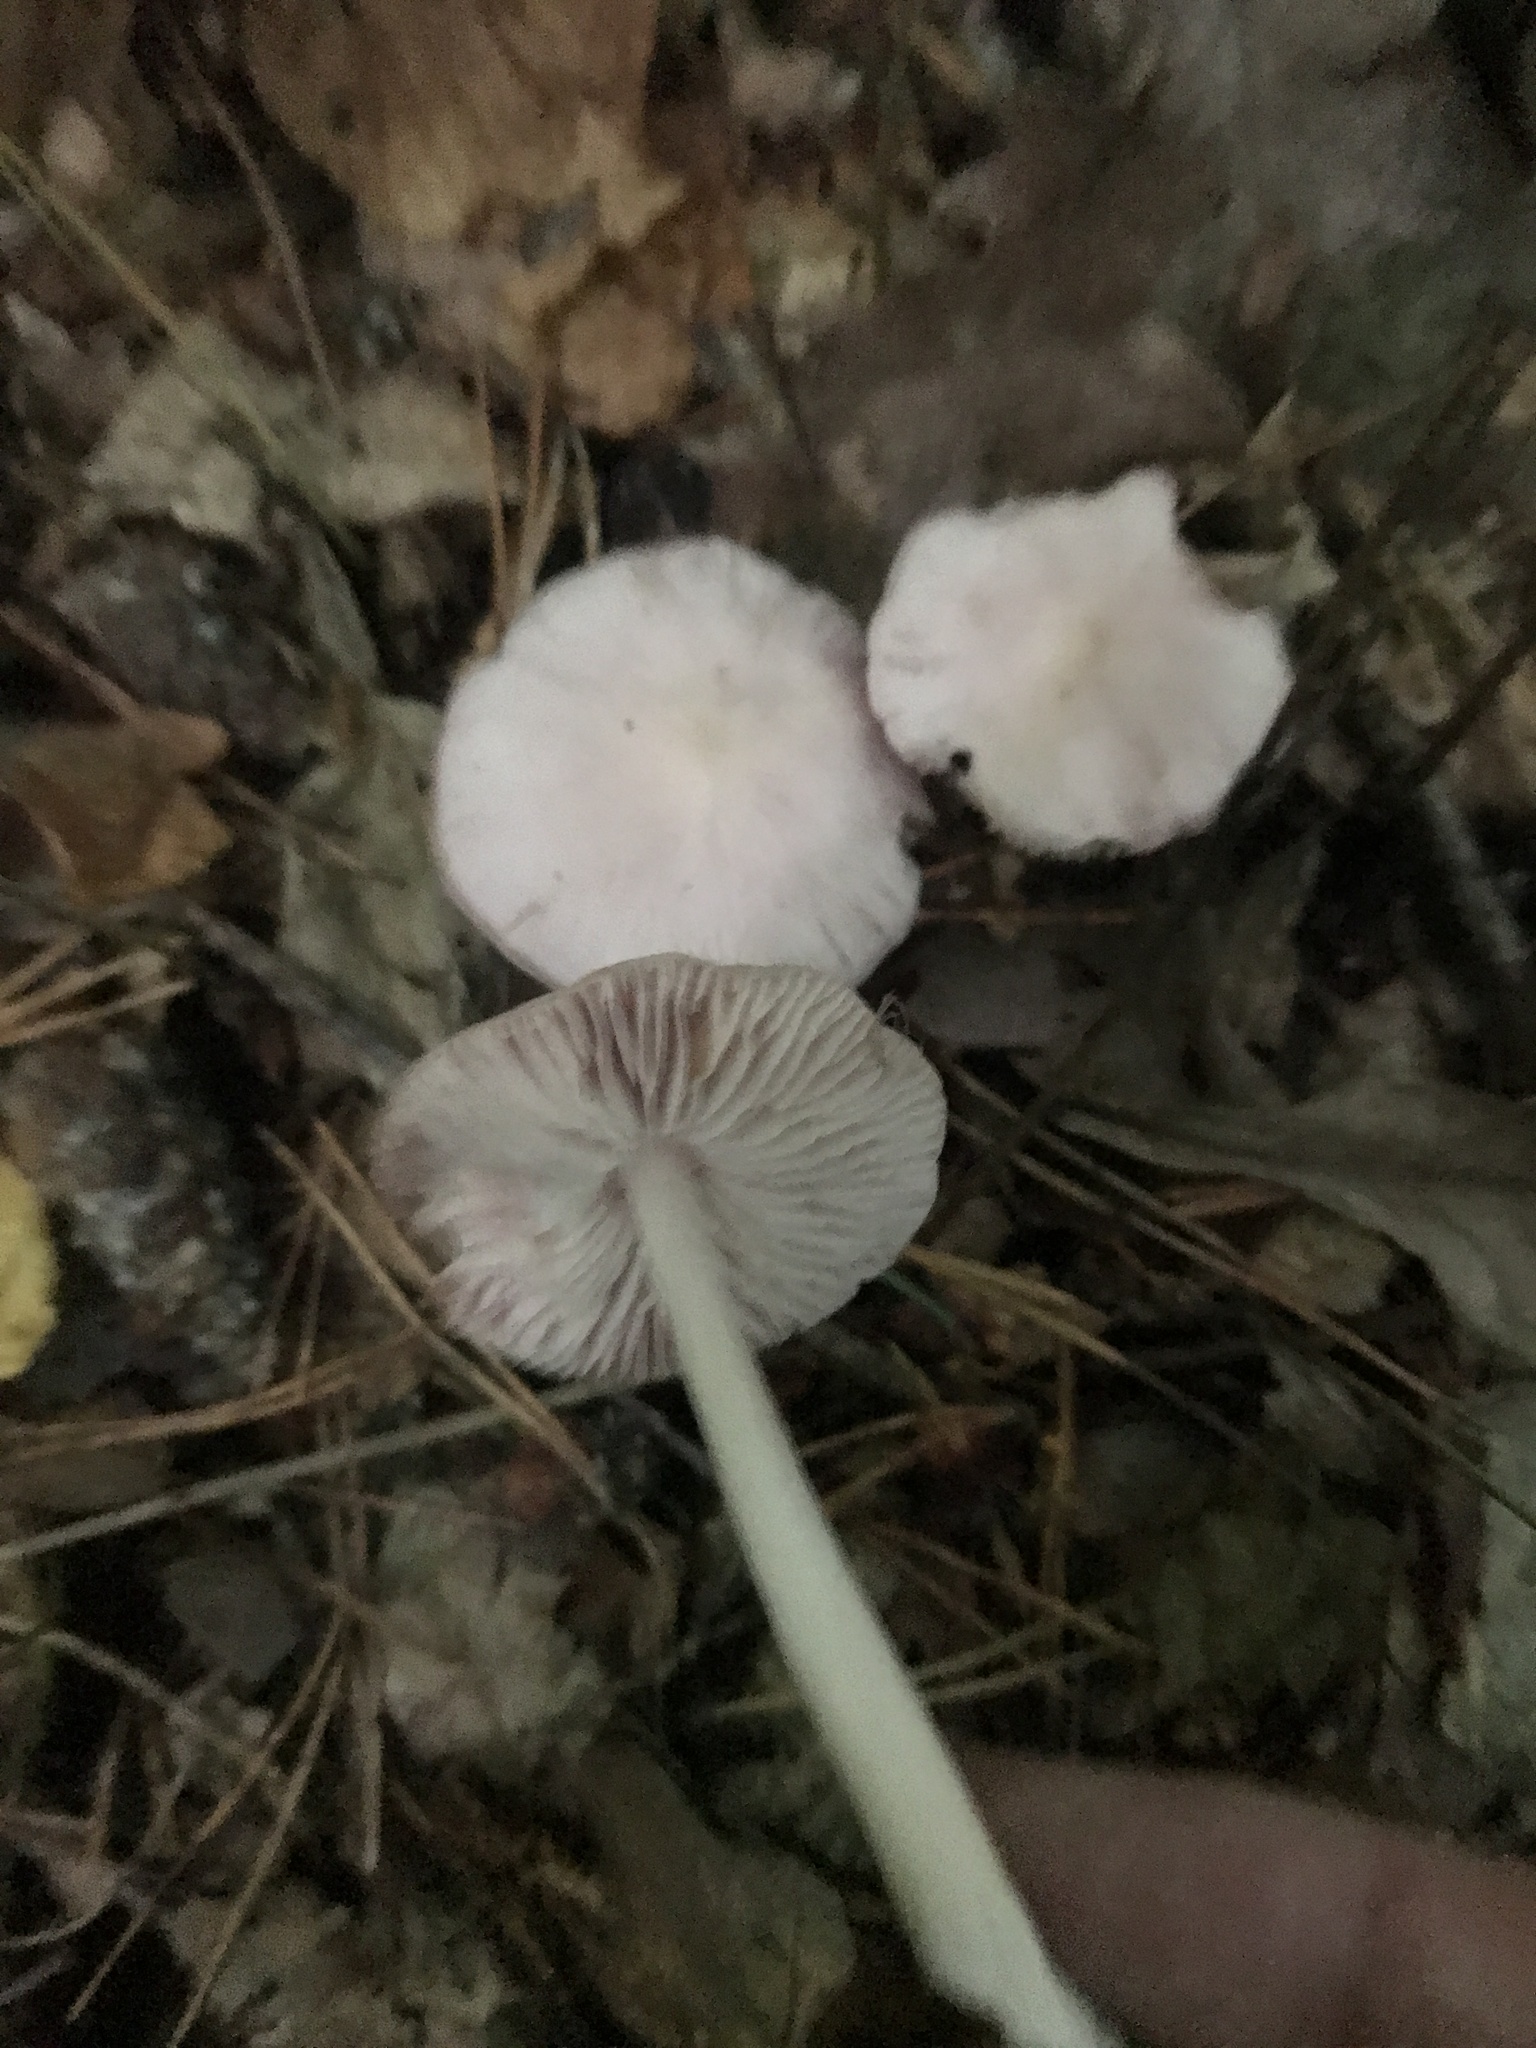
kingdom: Fungi
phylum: Basidiomycota
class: Agaricomycetes
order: Agaricales
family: Mycenaceae
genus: Mycena
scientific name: Mycena rosea
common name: Rosy bonnet
